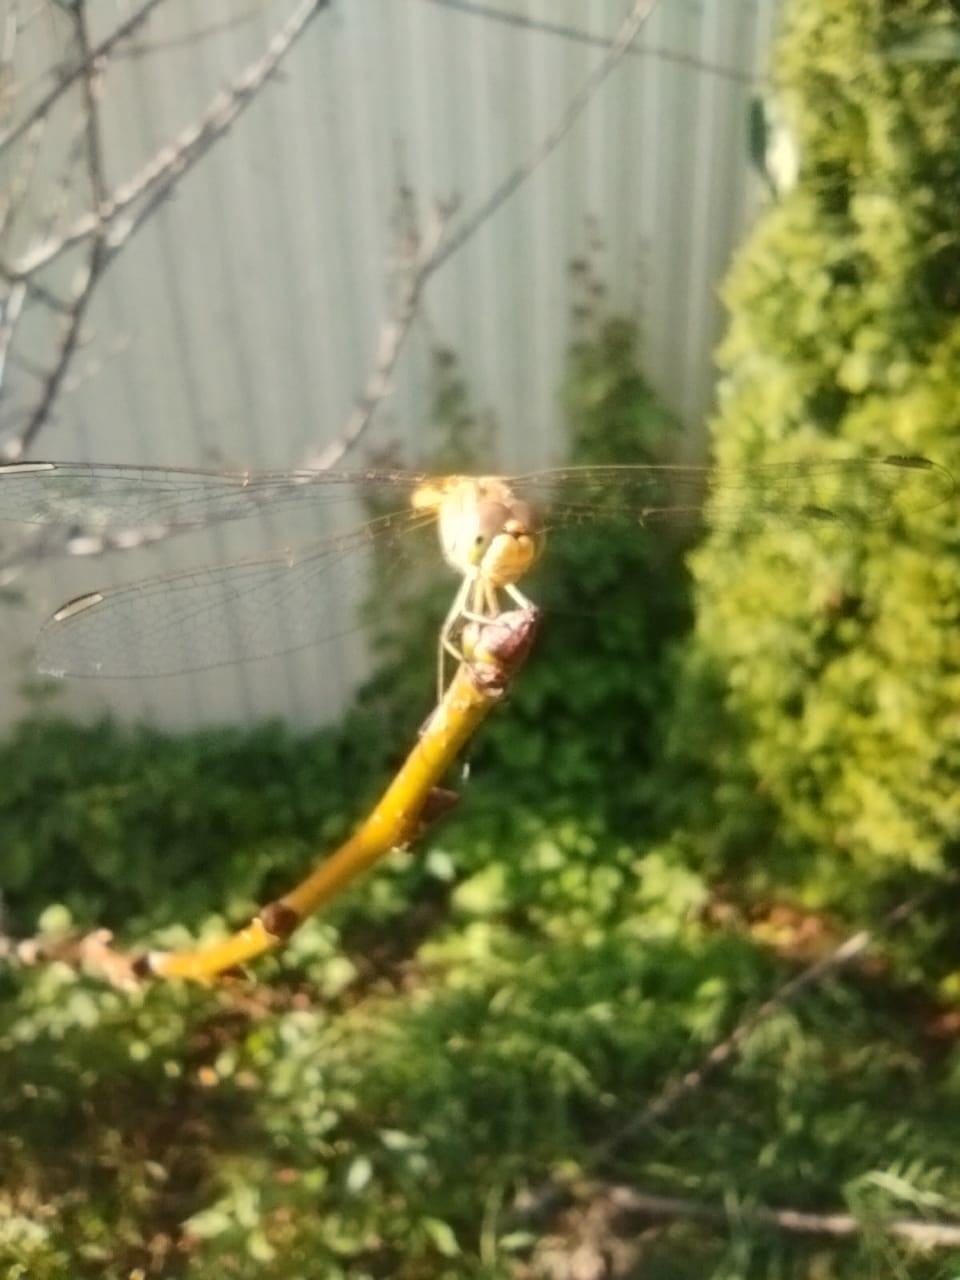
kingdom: Animalia
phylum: Arthropoda
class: Insecta
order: Odonata
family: Libellulidae
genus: Sympetrum
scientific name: Sympetrum meridionale
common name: Southern darter
